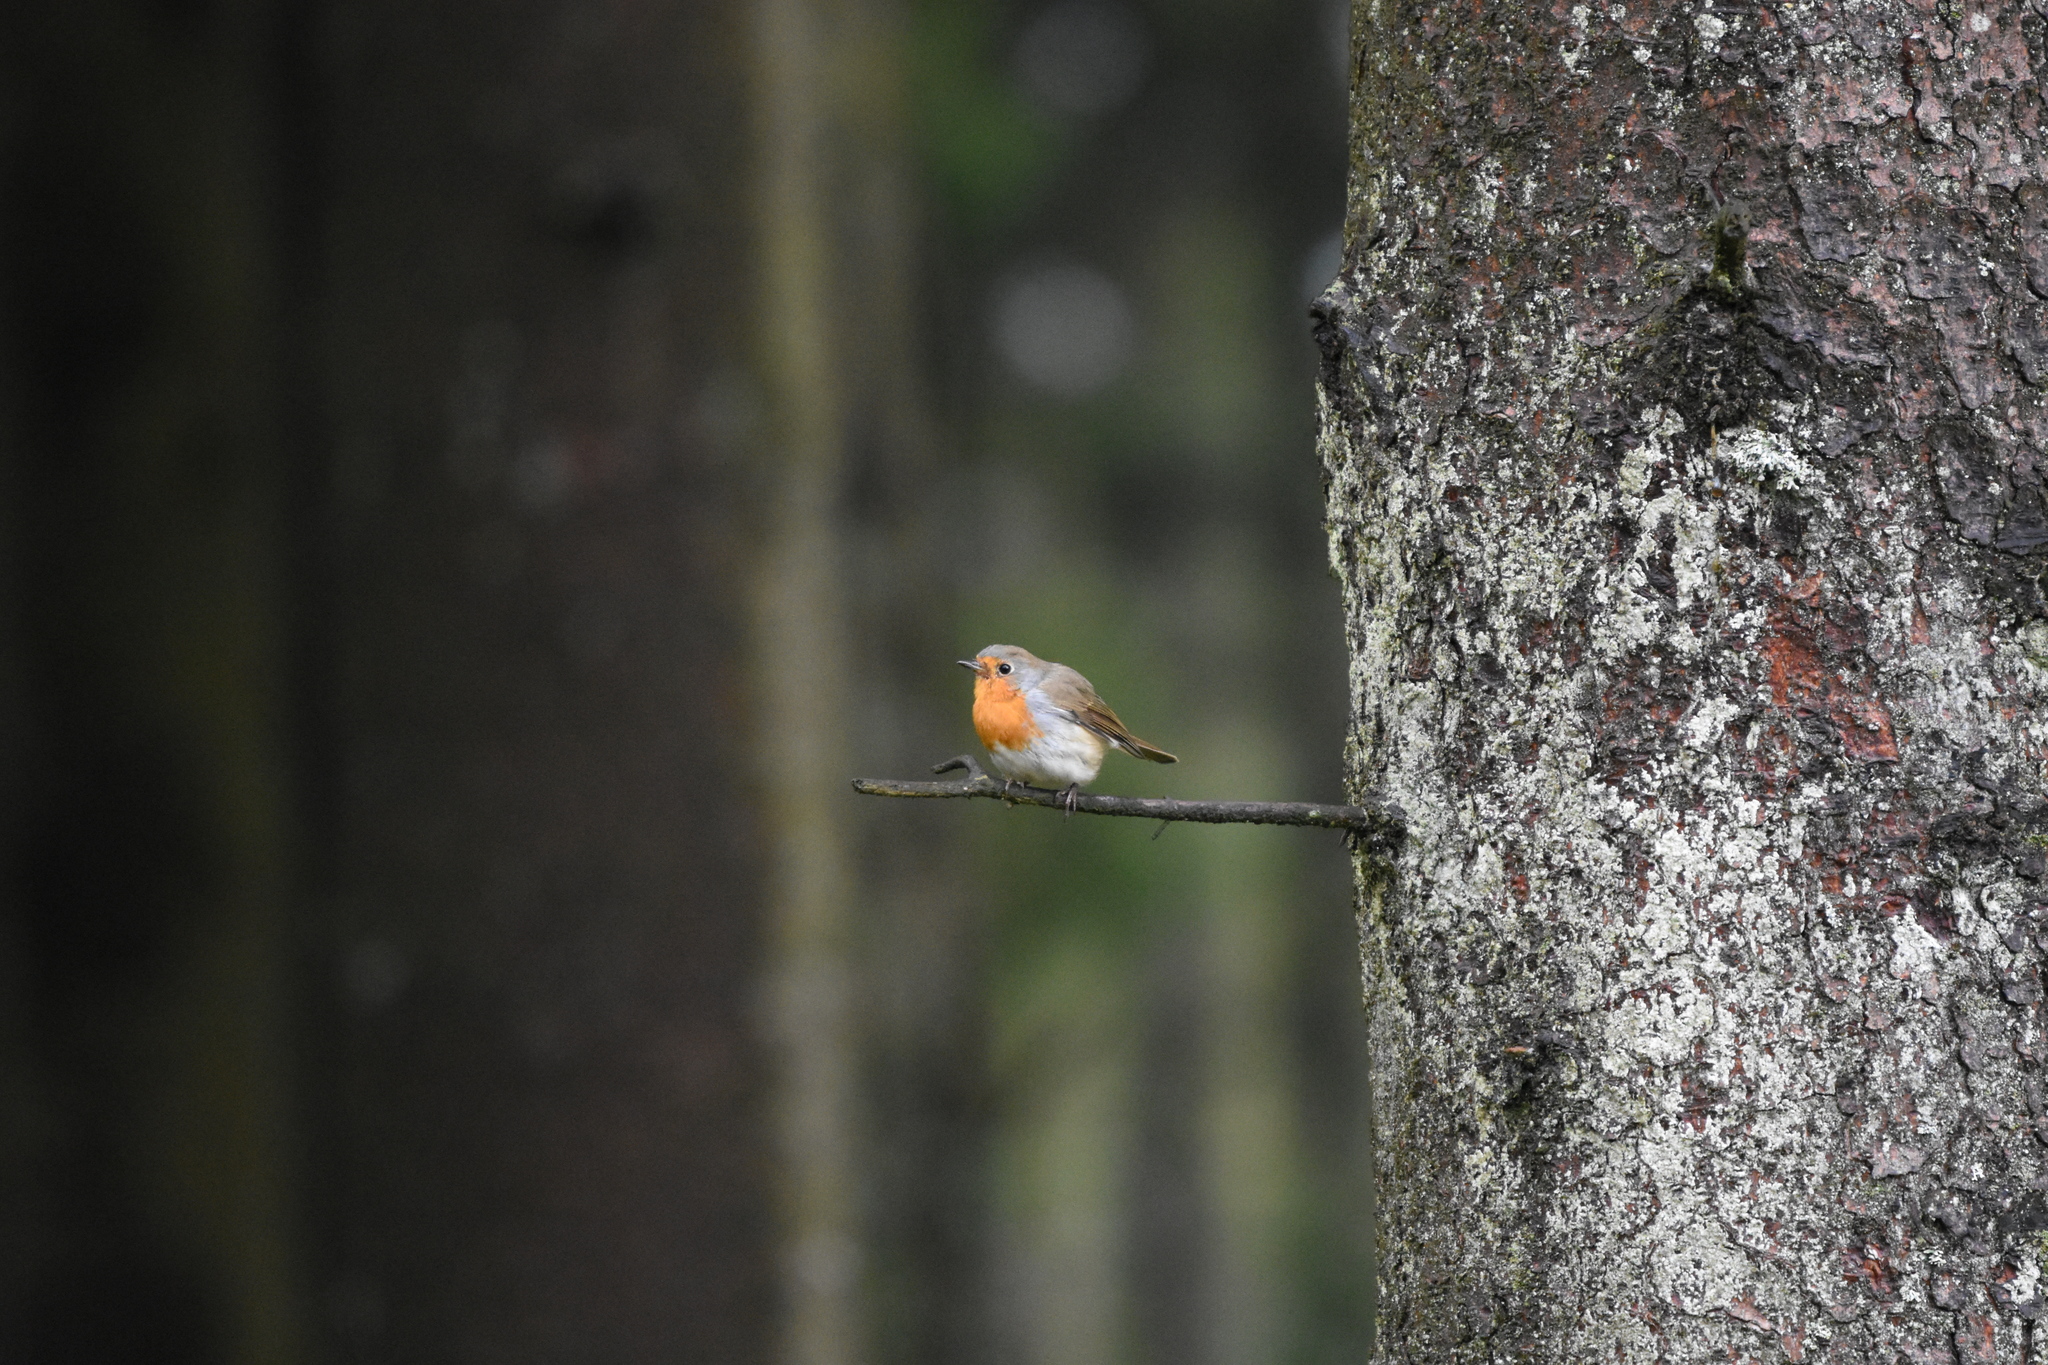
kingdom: Animalia
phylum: Chordata
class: Aves
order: Passeriformes
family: Muscicapidae
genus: Erithacus
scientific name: Erithacus rubecula
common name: European robin
